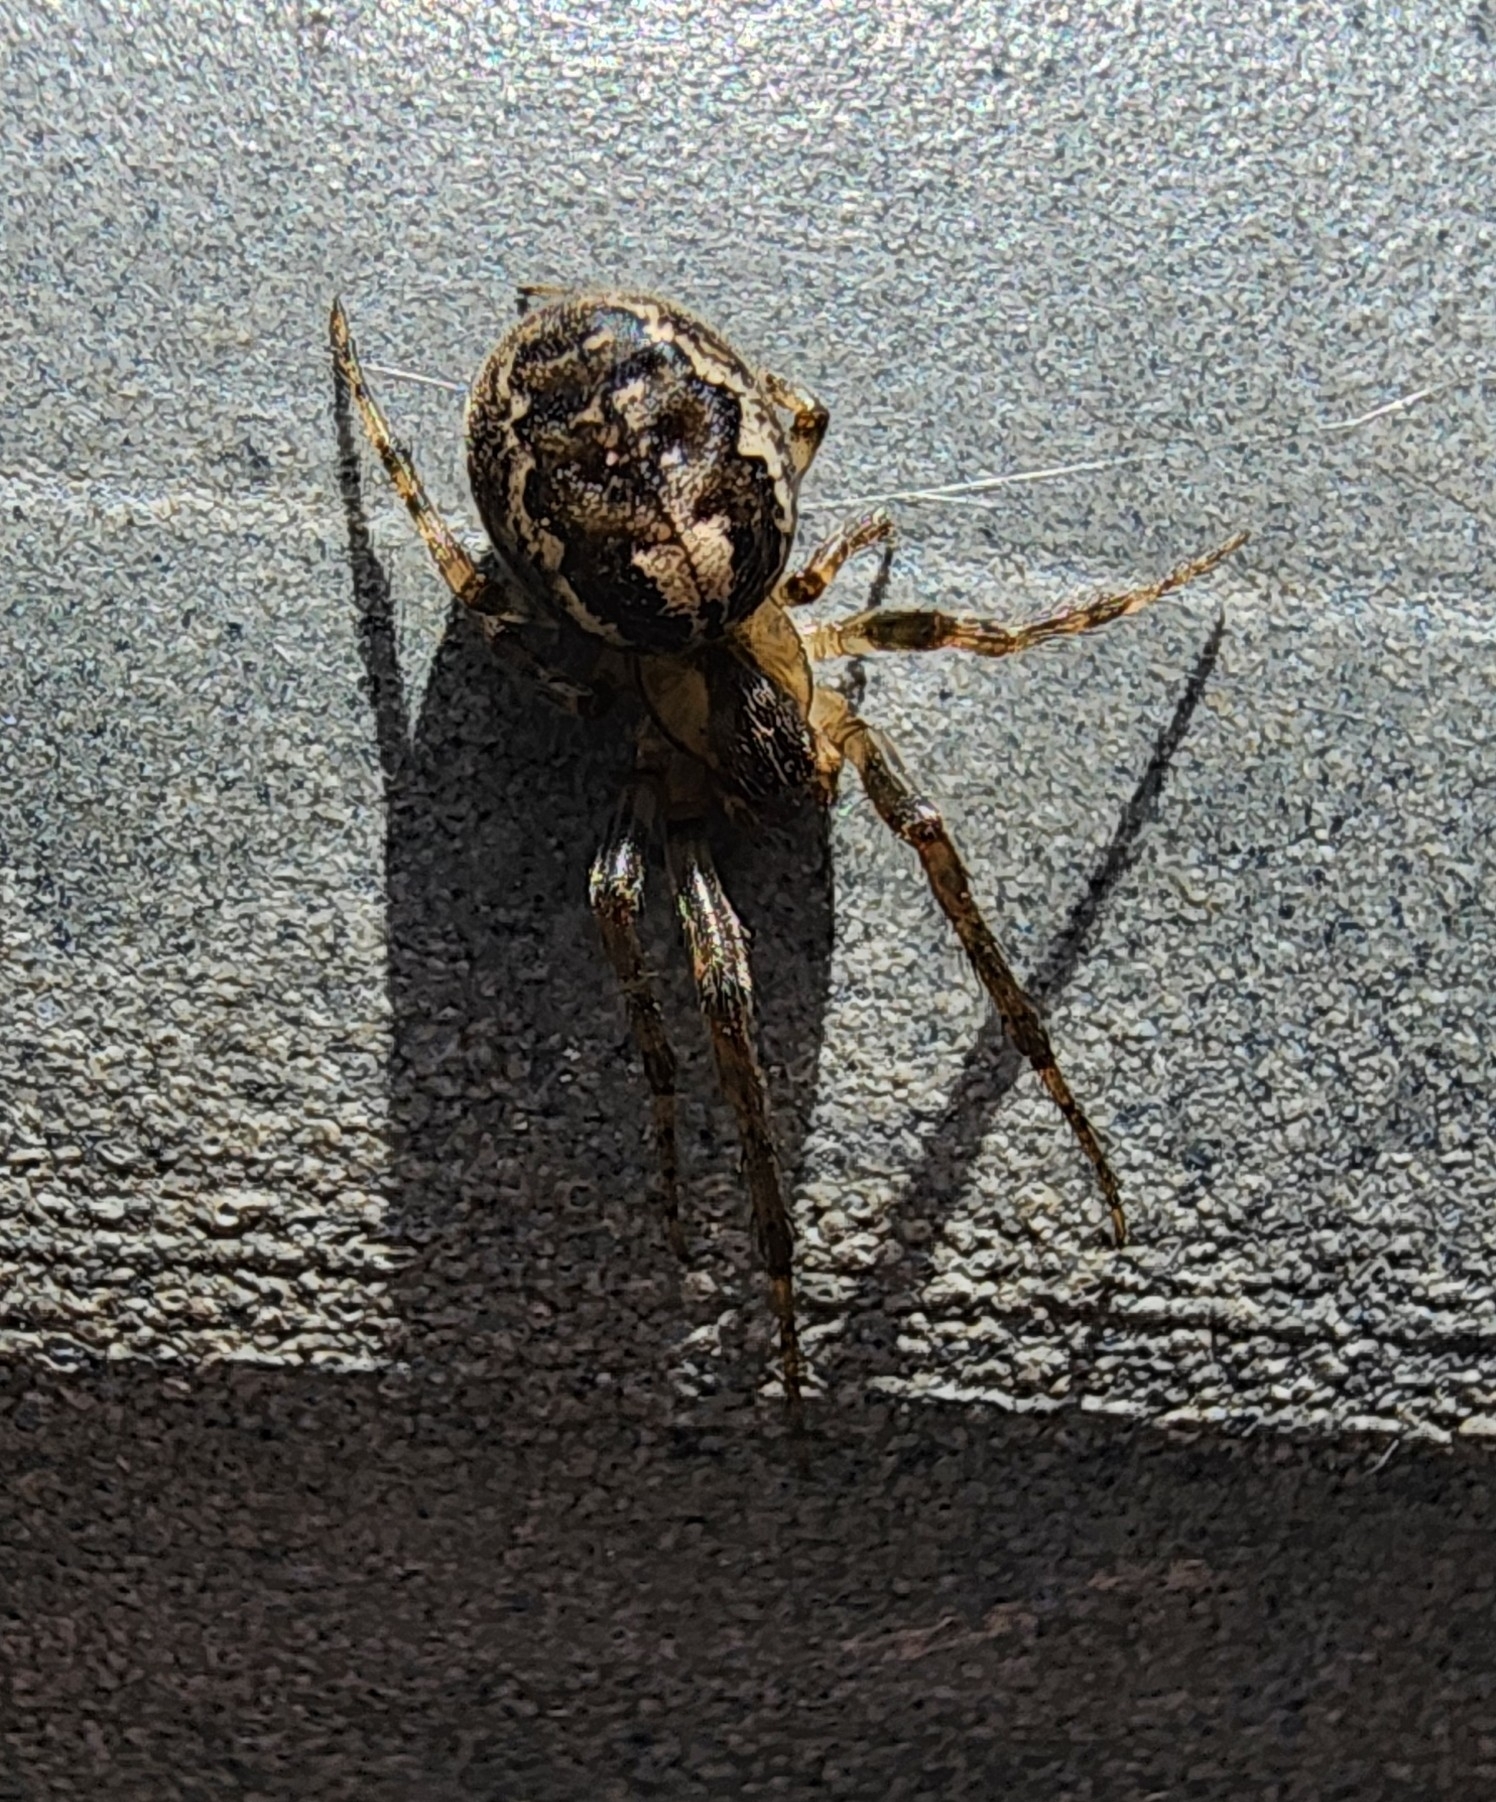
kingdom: Animalia
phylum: Arthropoda
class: Arachnida
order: Araneae
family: Araneidae
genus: Zygiella
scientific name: Zygiella x-notata
